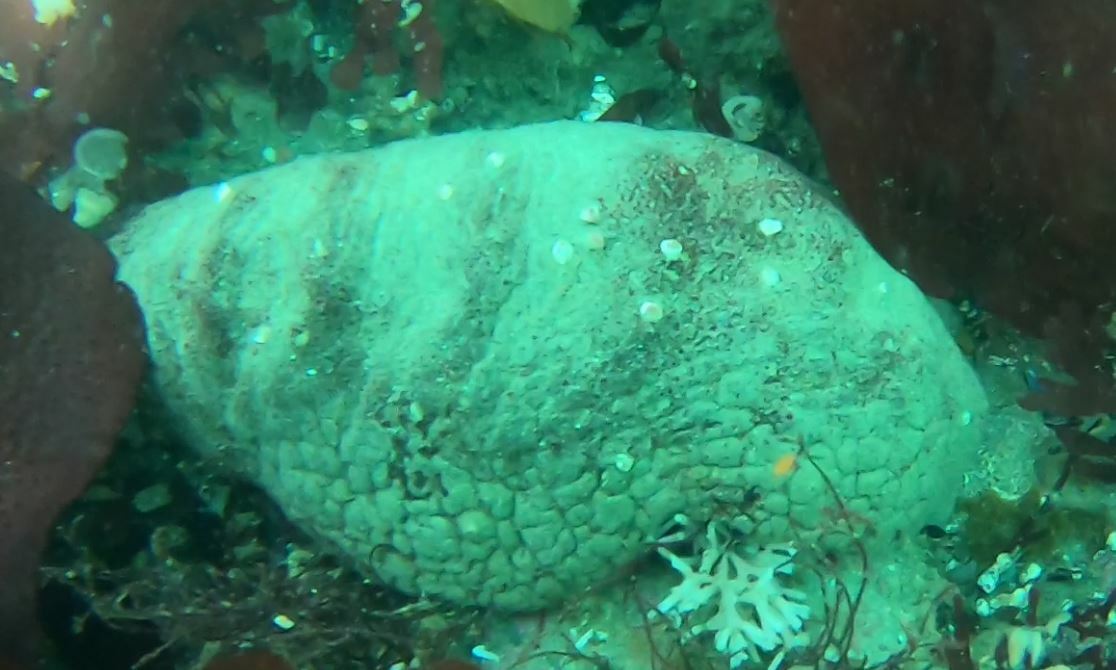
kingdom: Animalia
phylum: Mollusca
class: Polyplacophora
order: Chitonida
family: Acanthochitonidae
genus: Cryptochiton
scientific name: Cryptochiton stelleri
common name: Giant pacific chiton
